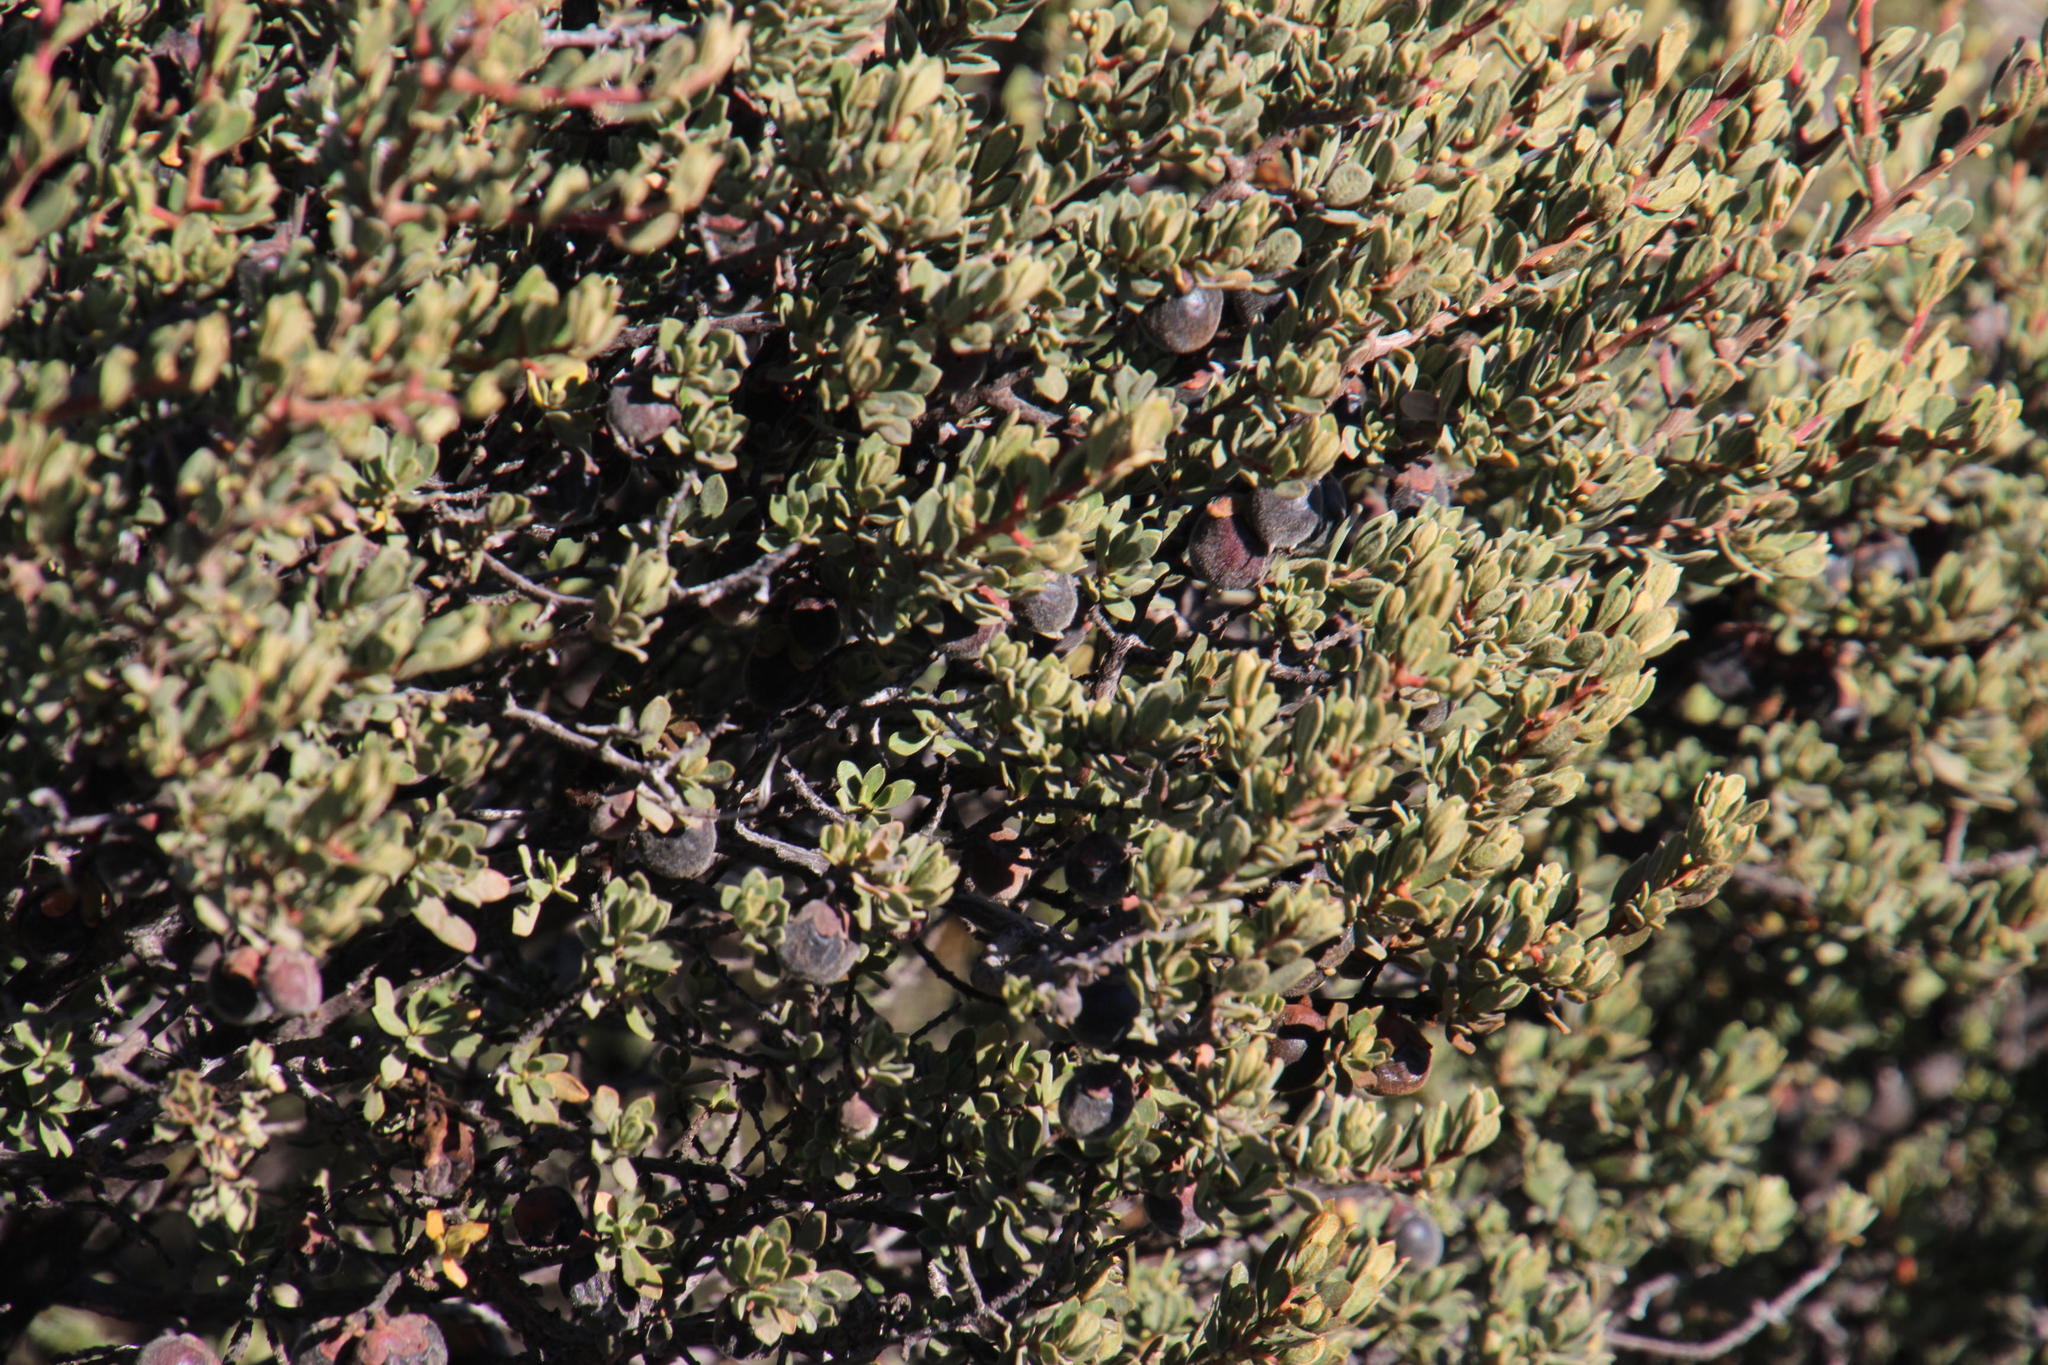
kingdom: Plantae
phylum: Tracheophyta
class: Magnoliopsida
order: Ericales
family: Ebenaceae
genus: Diospyros
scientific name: Diospyros pubescens
